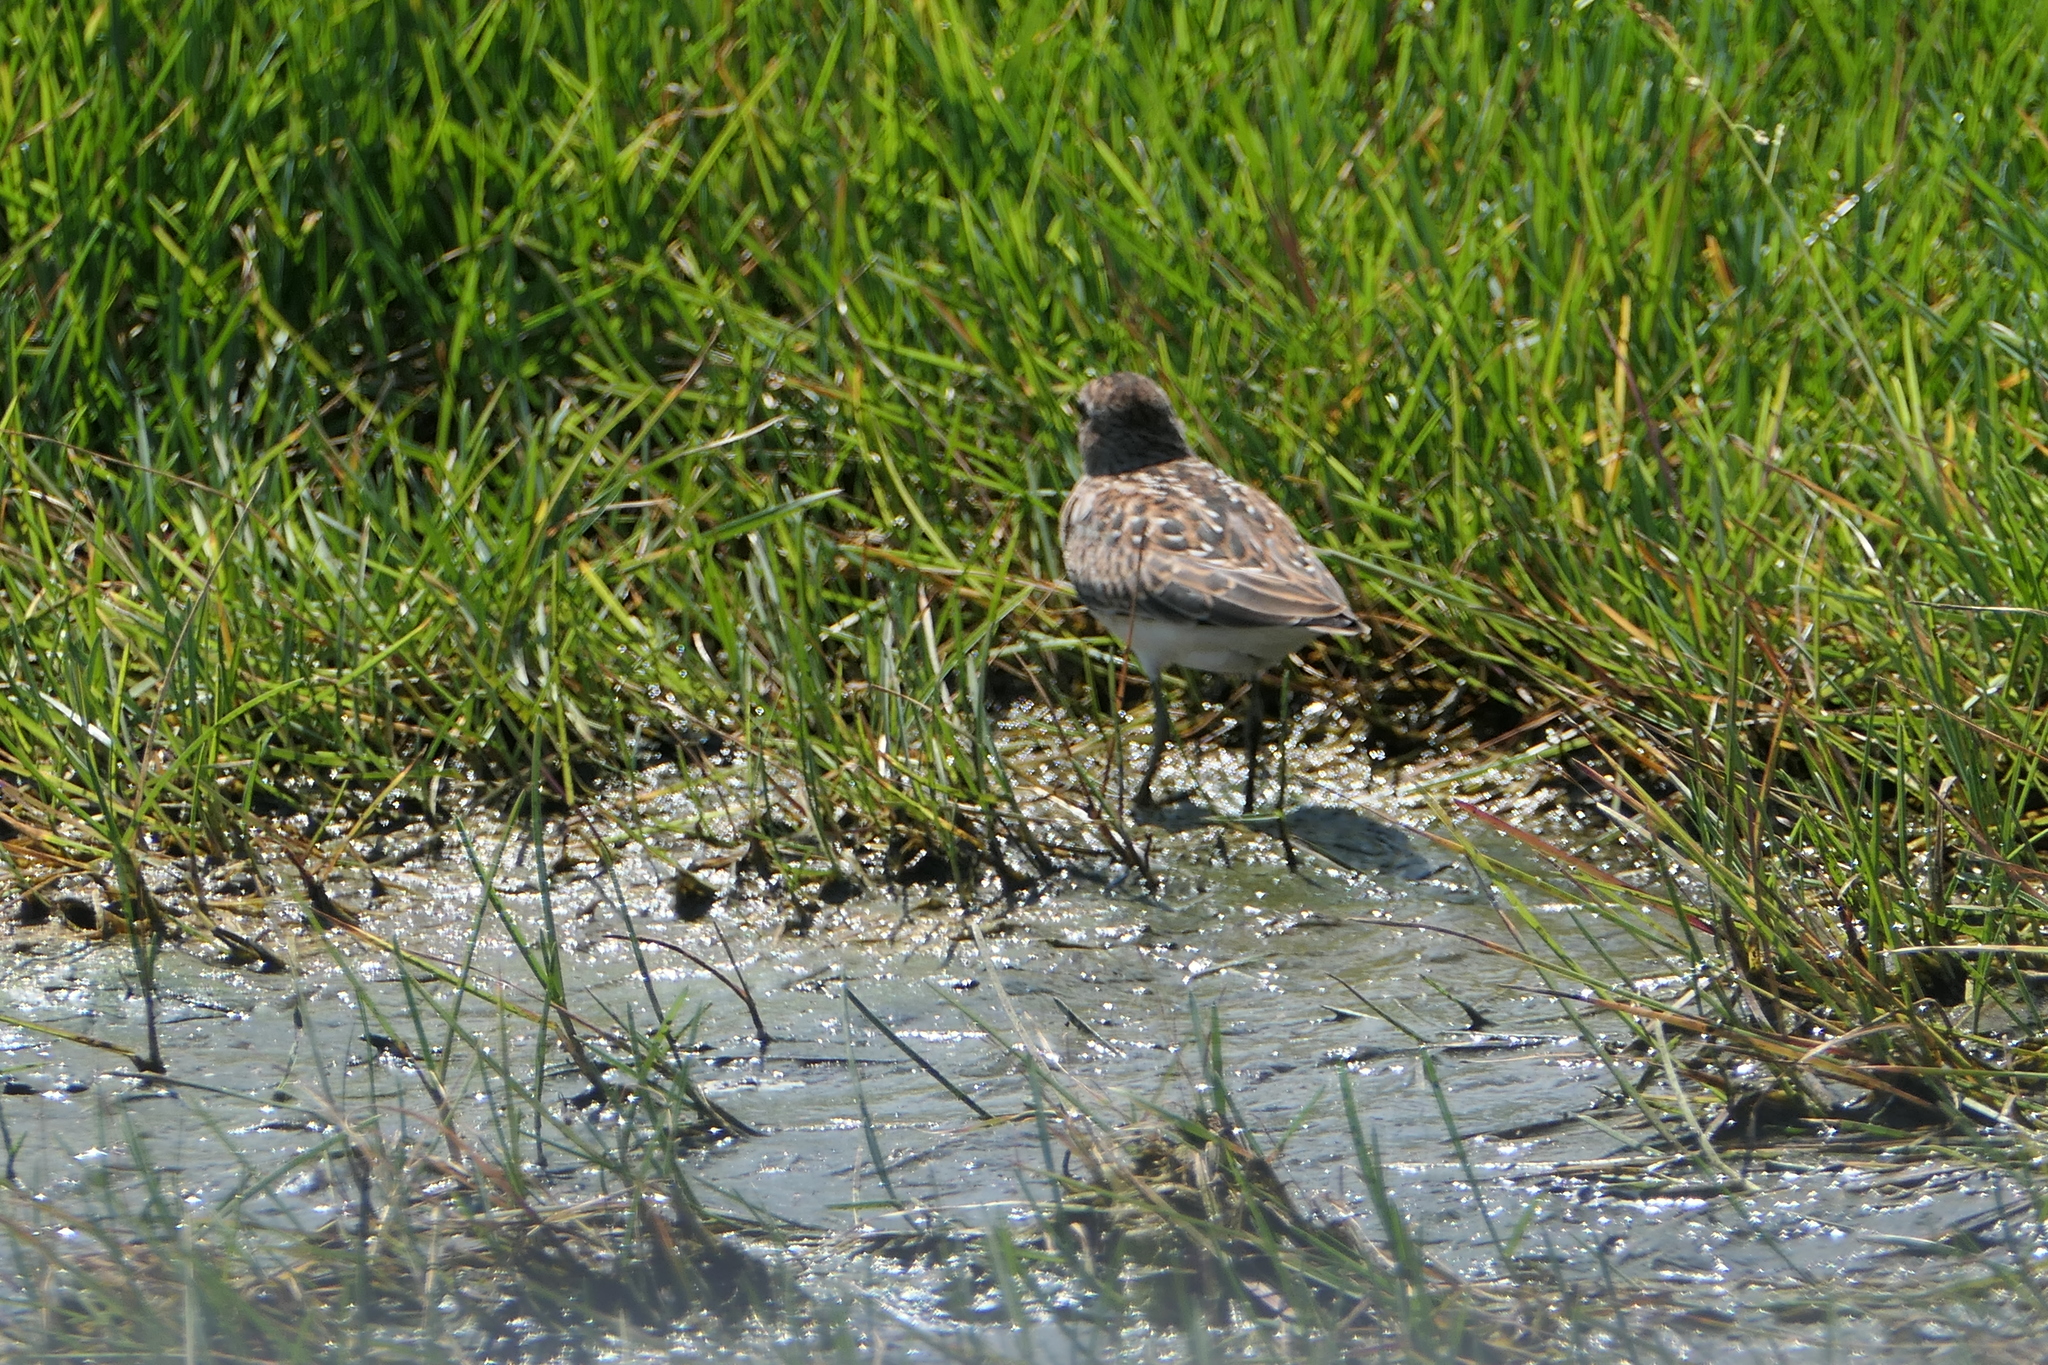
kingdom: Animalia
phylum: Chordata
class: Aves
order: Charadriiformes
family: Scolopacidae
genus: Calidris
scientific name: Calidris minutilla
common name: Least sandpiper
